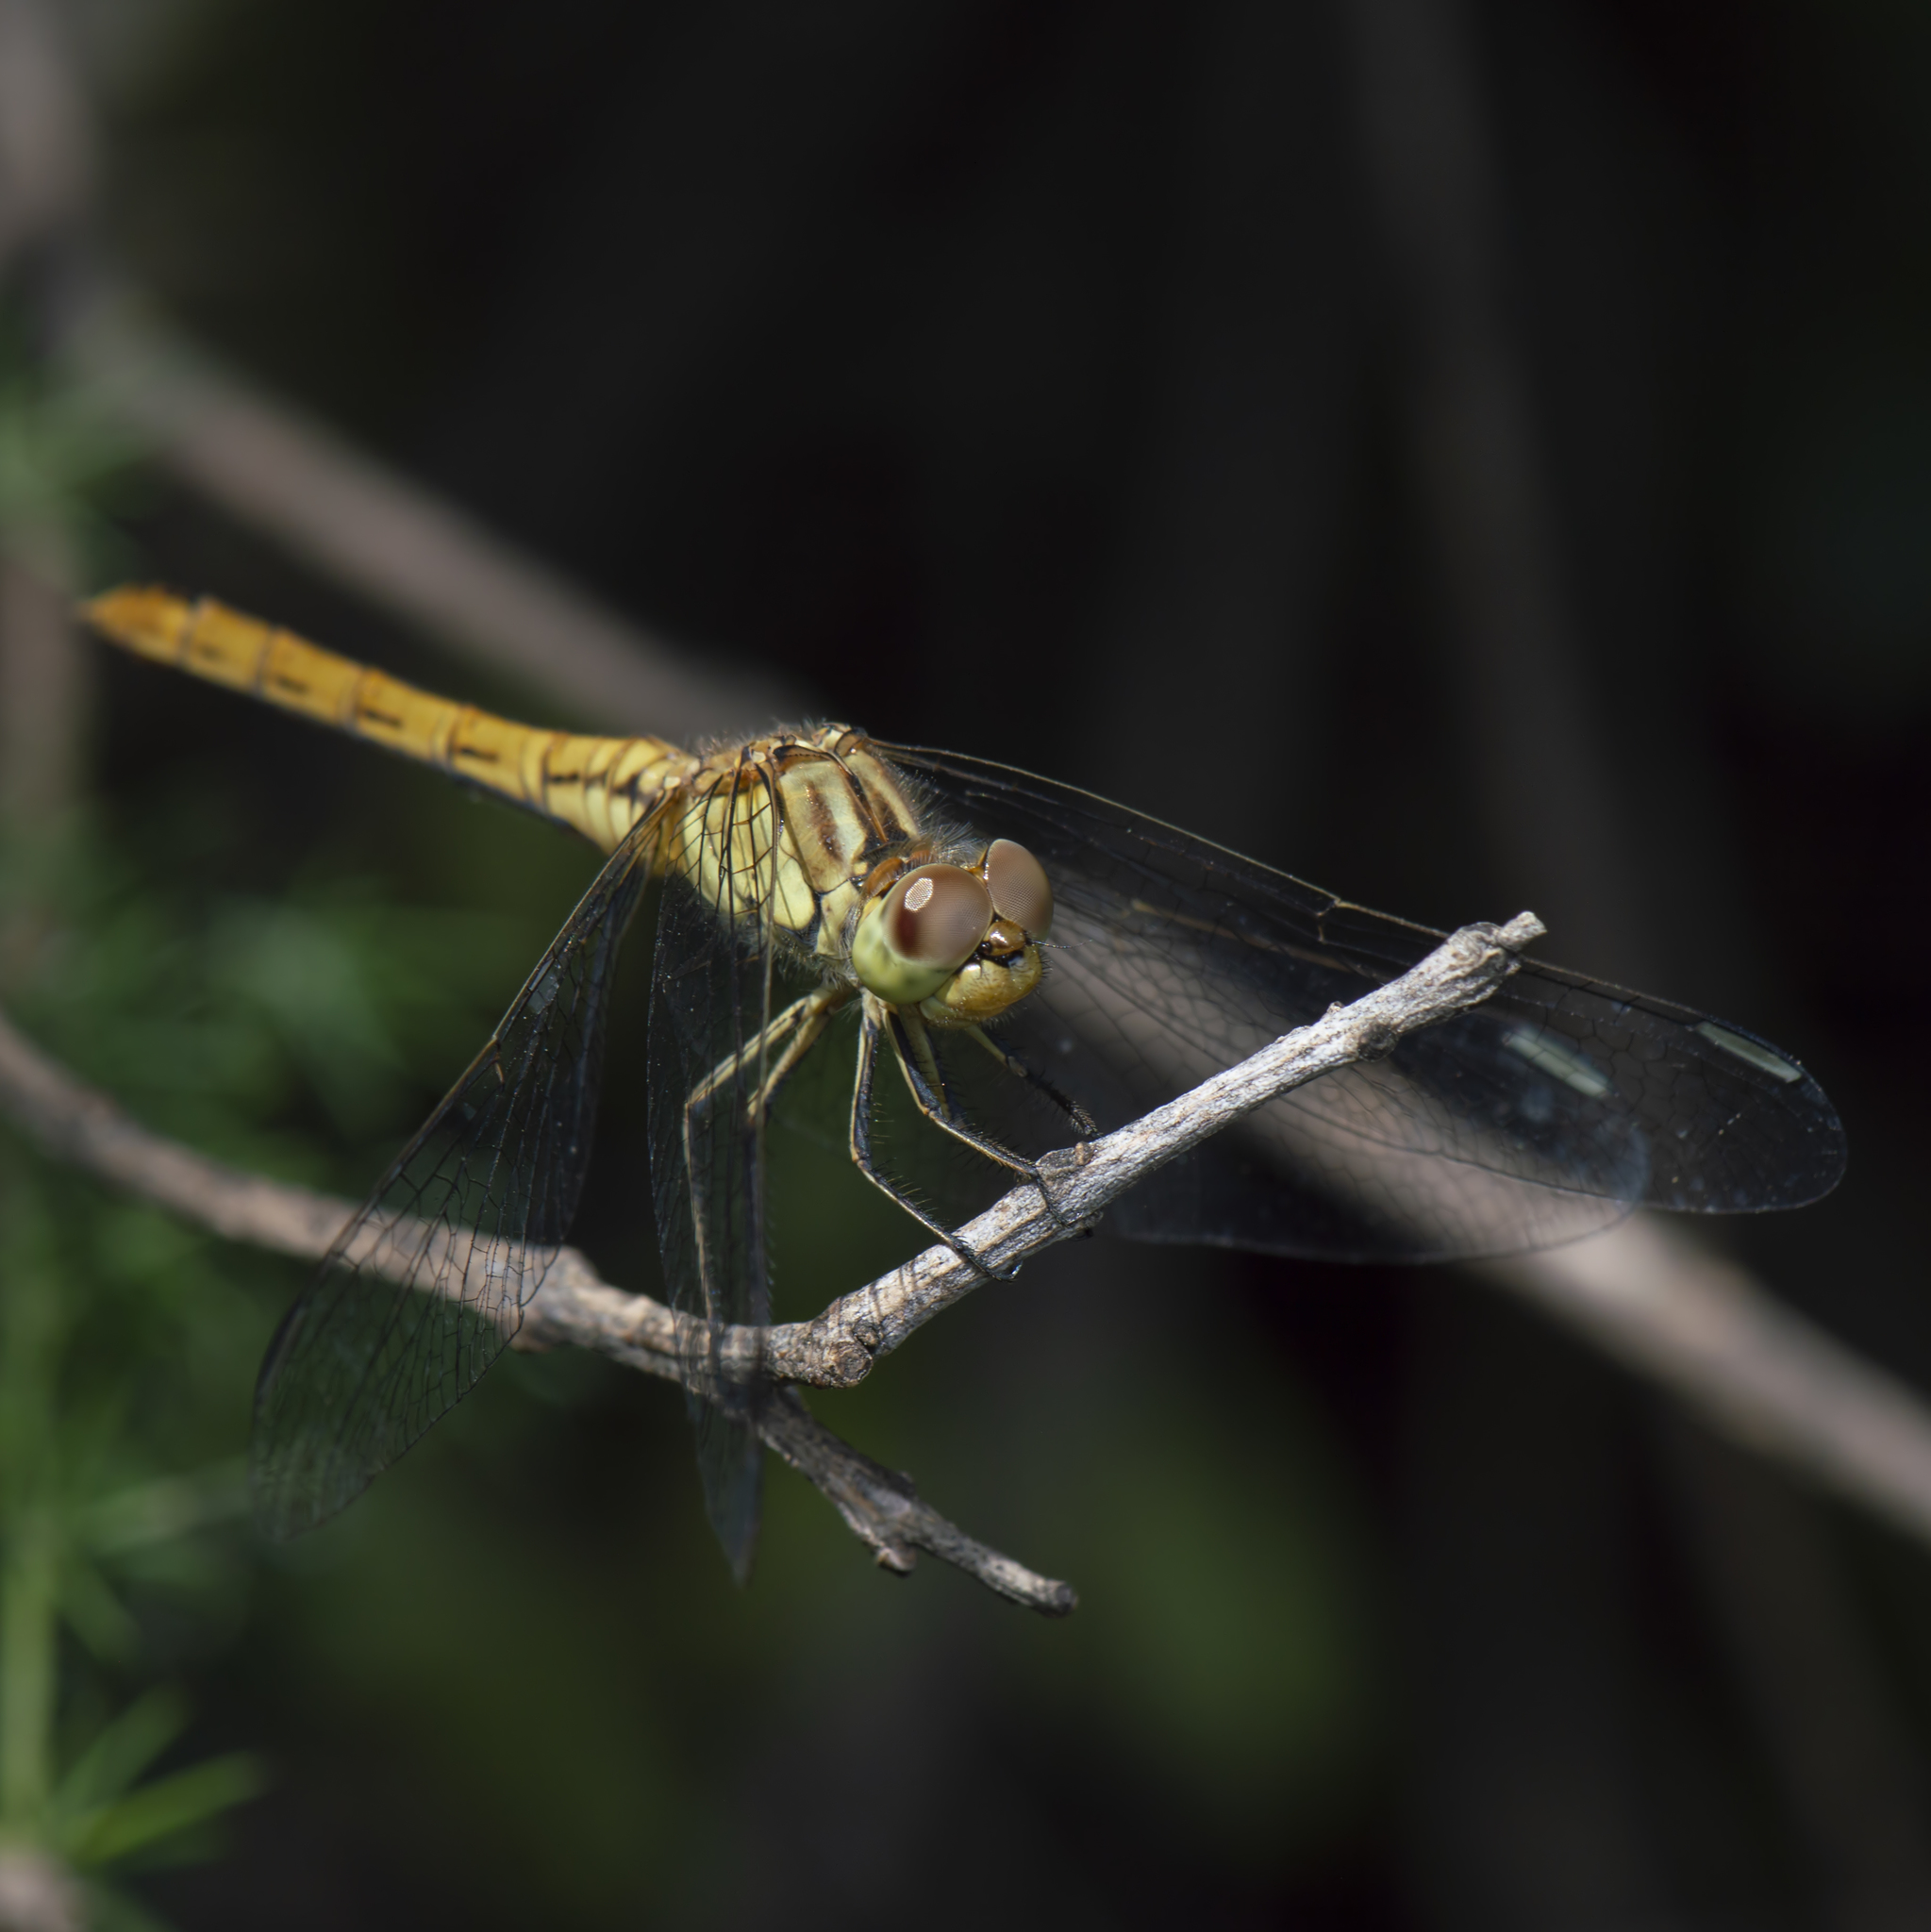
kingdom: Animalia
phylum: Arthropoda
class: Insecta
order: Odonata
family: Libellulidae
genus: Sympetrum
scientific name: Sympetrum meridionale
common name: Southern darter
